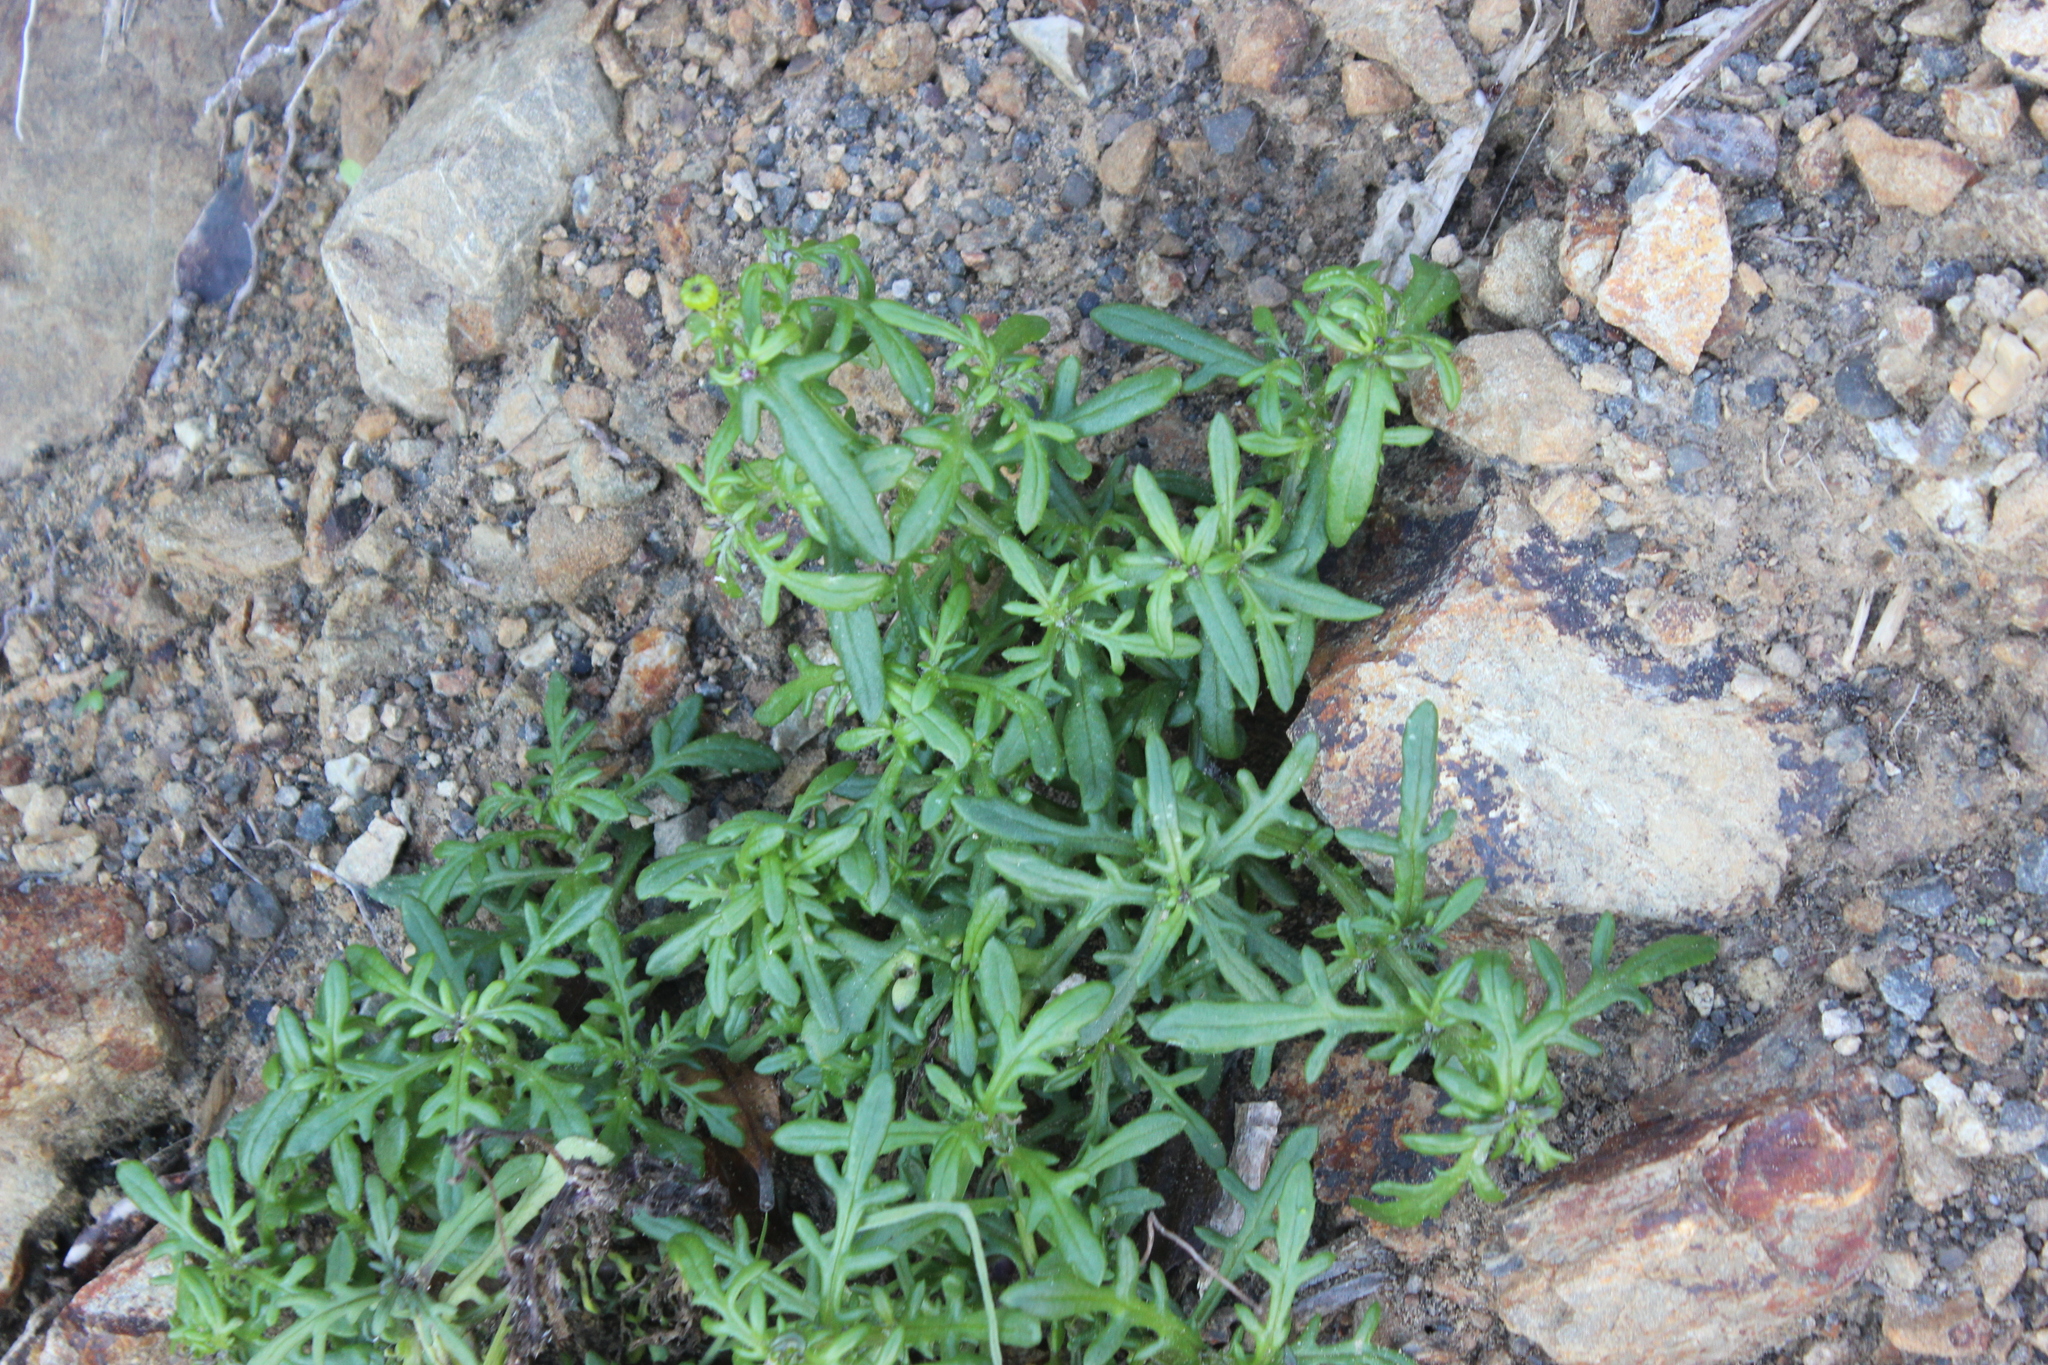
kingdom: Plantae
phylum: Tracheophyta
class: Magnoliopsida
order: Asterales
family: Asteraceae
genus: Senecio
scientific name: Senecio lautus
